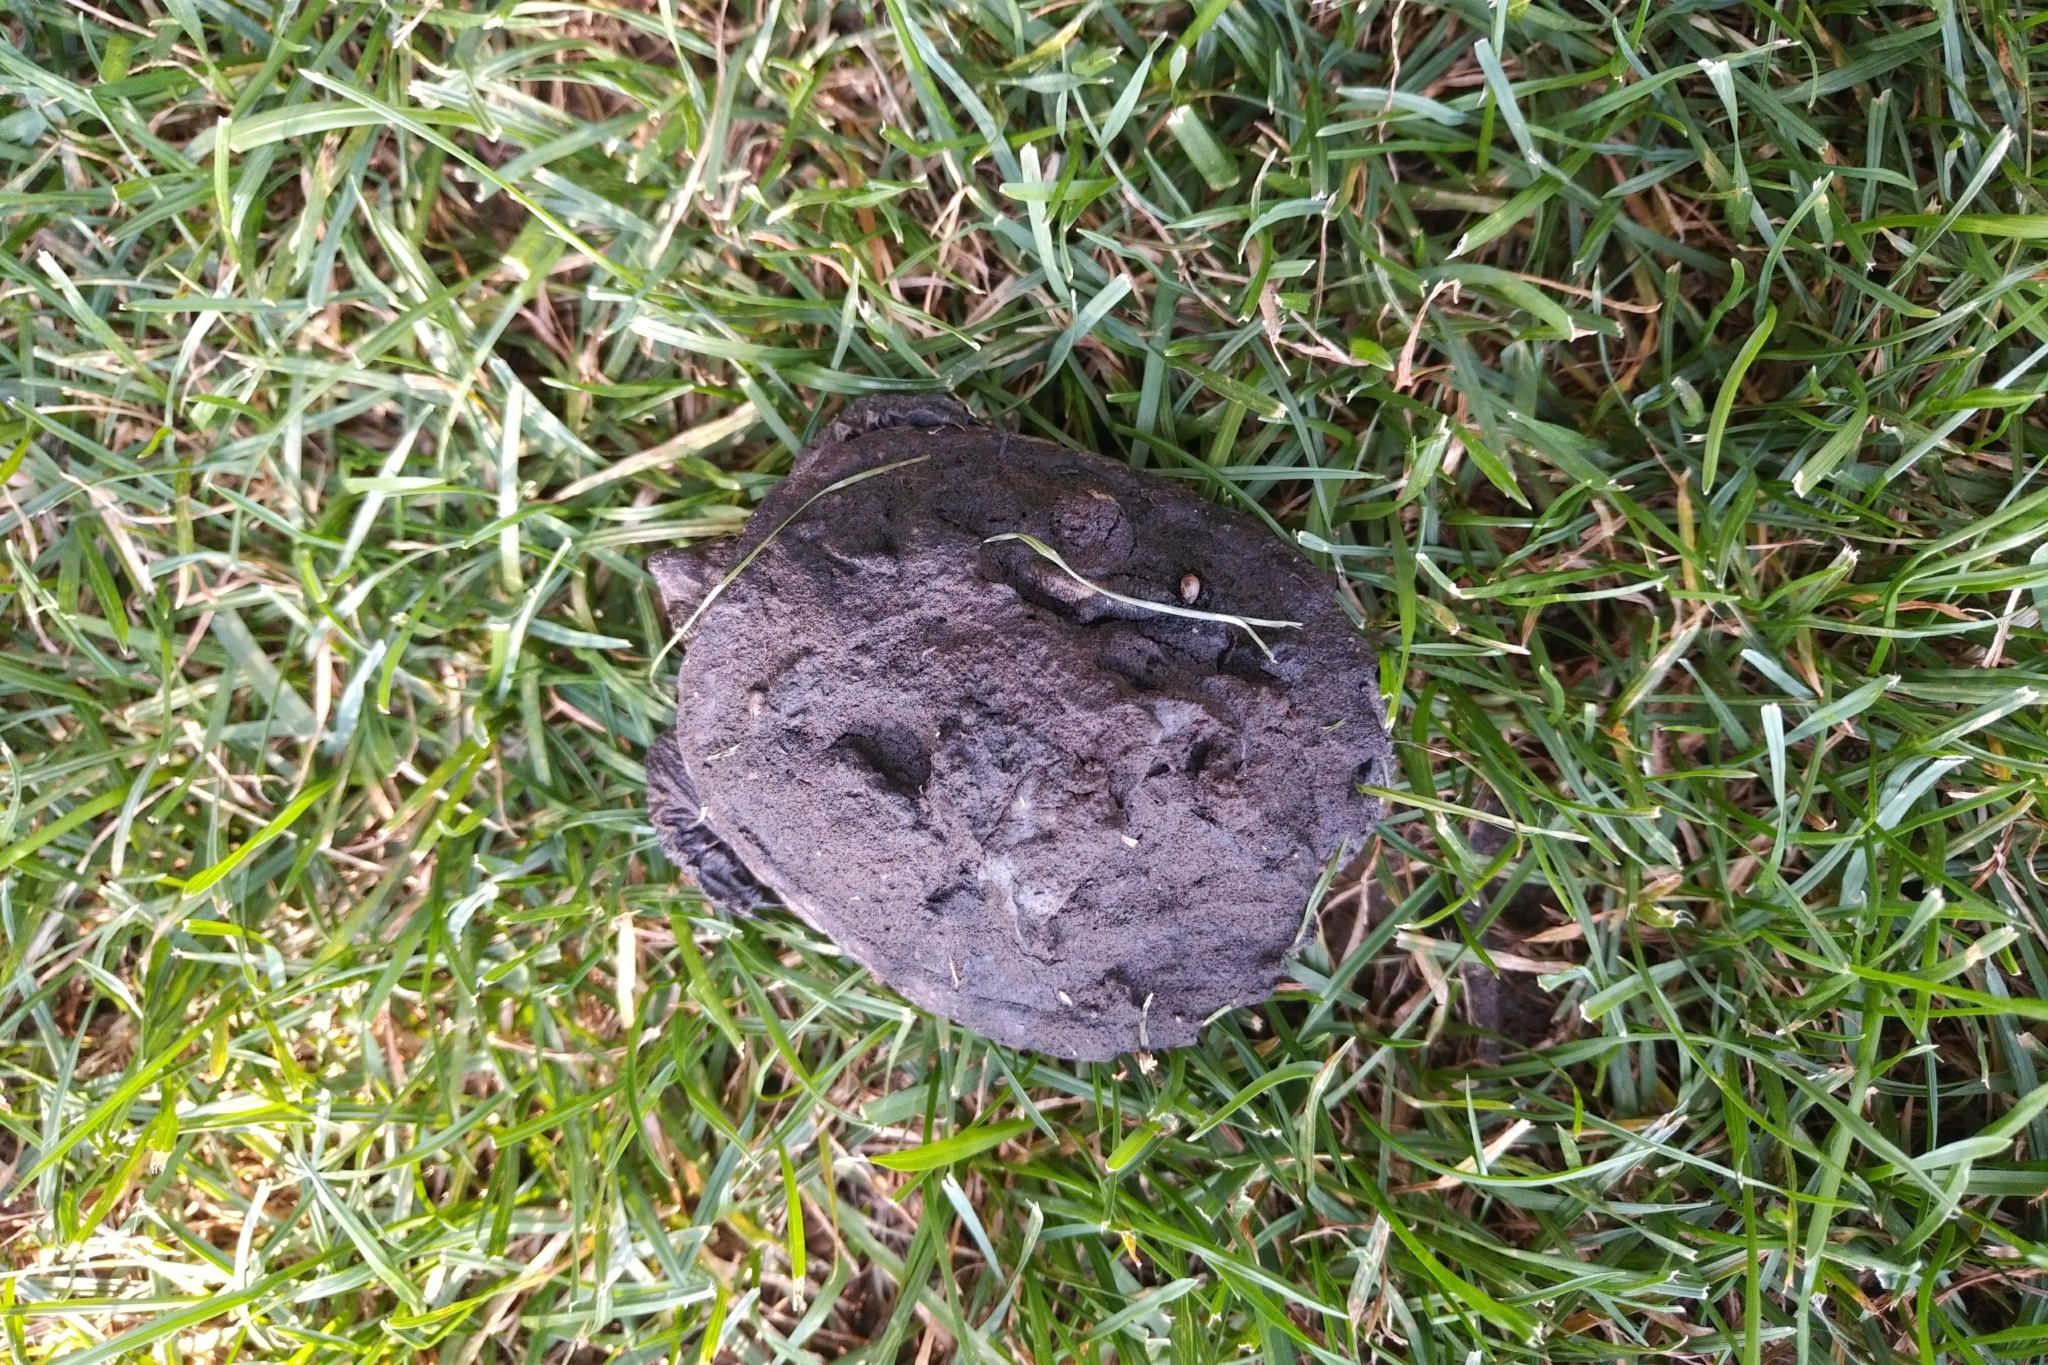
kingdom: Animalia
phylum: Chordata
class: Testudines
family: Chelydridae
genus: Chelydra
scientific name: Chelydra serpentina
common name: Common snapping turtle
